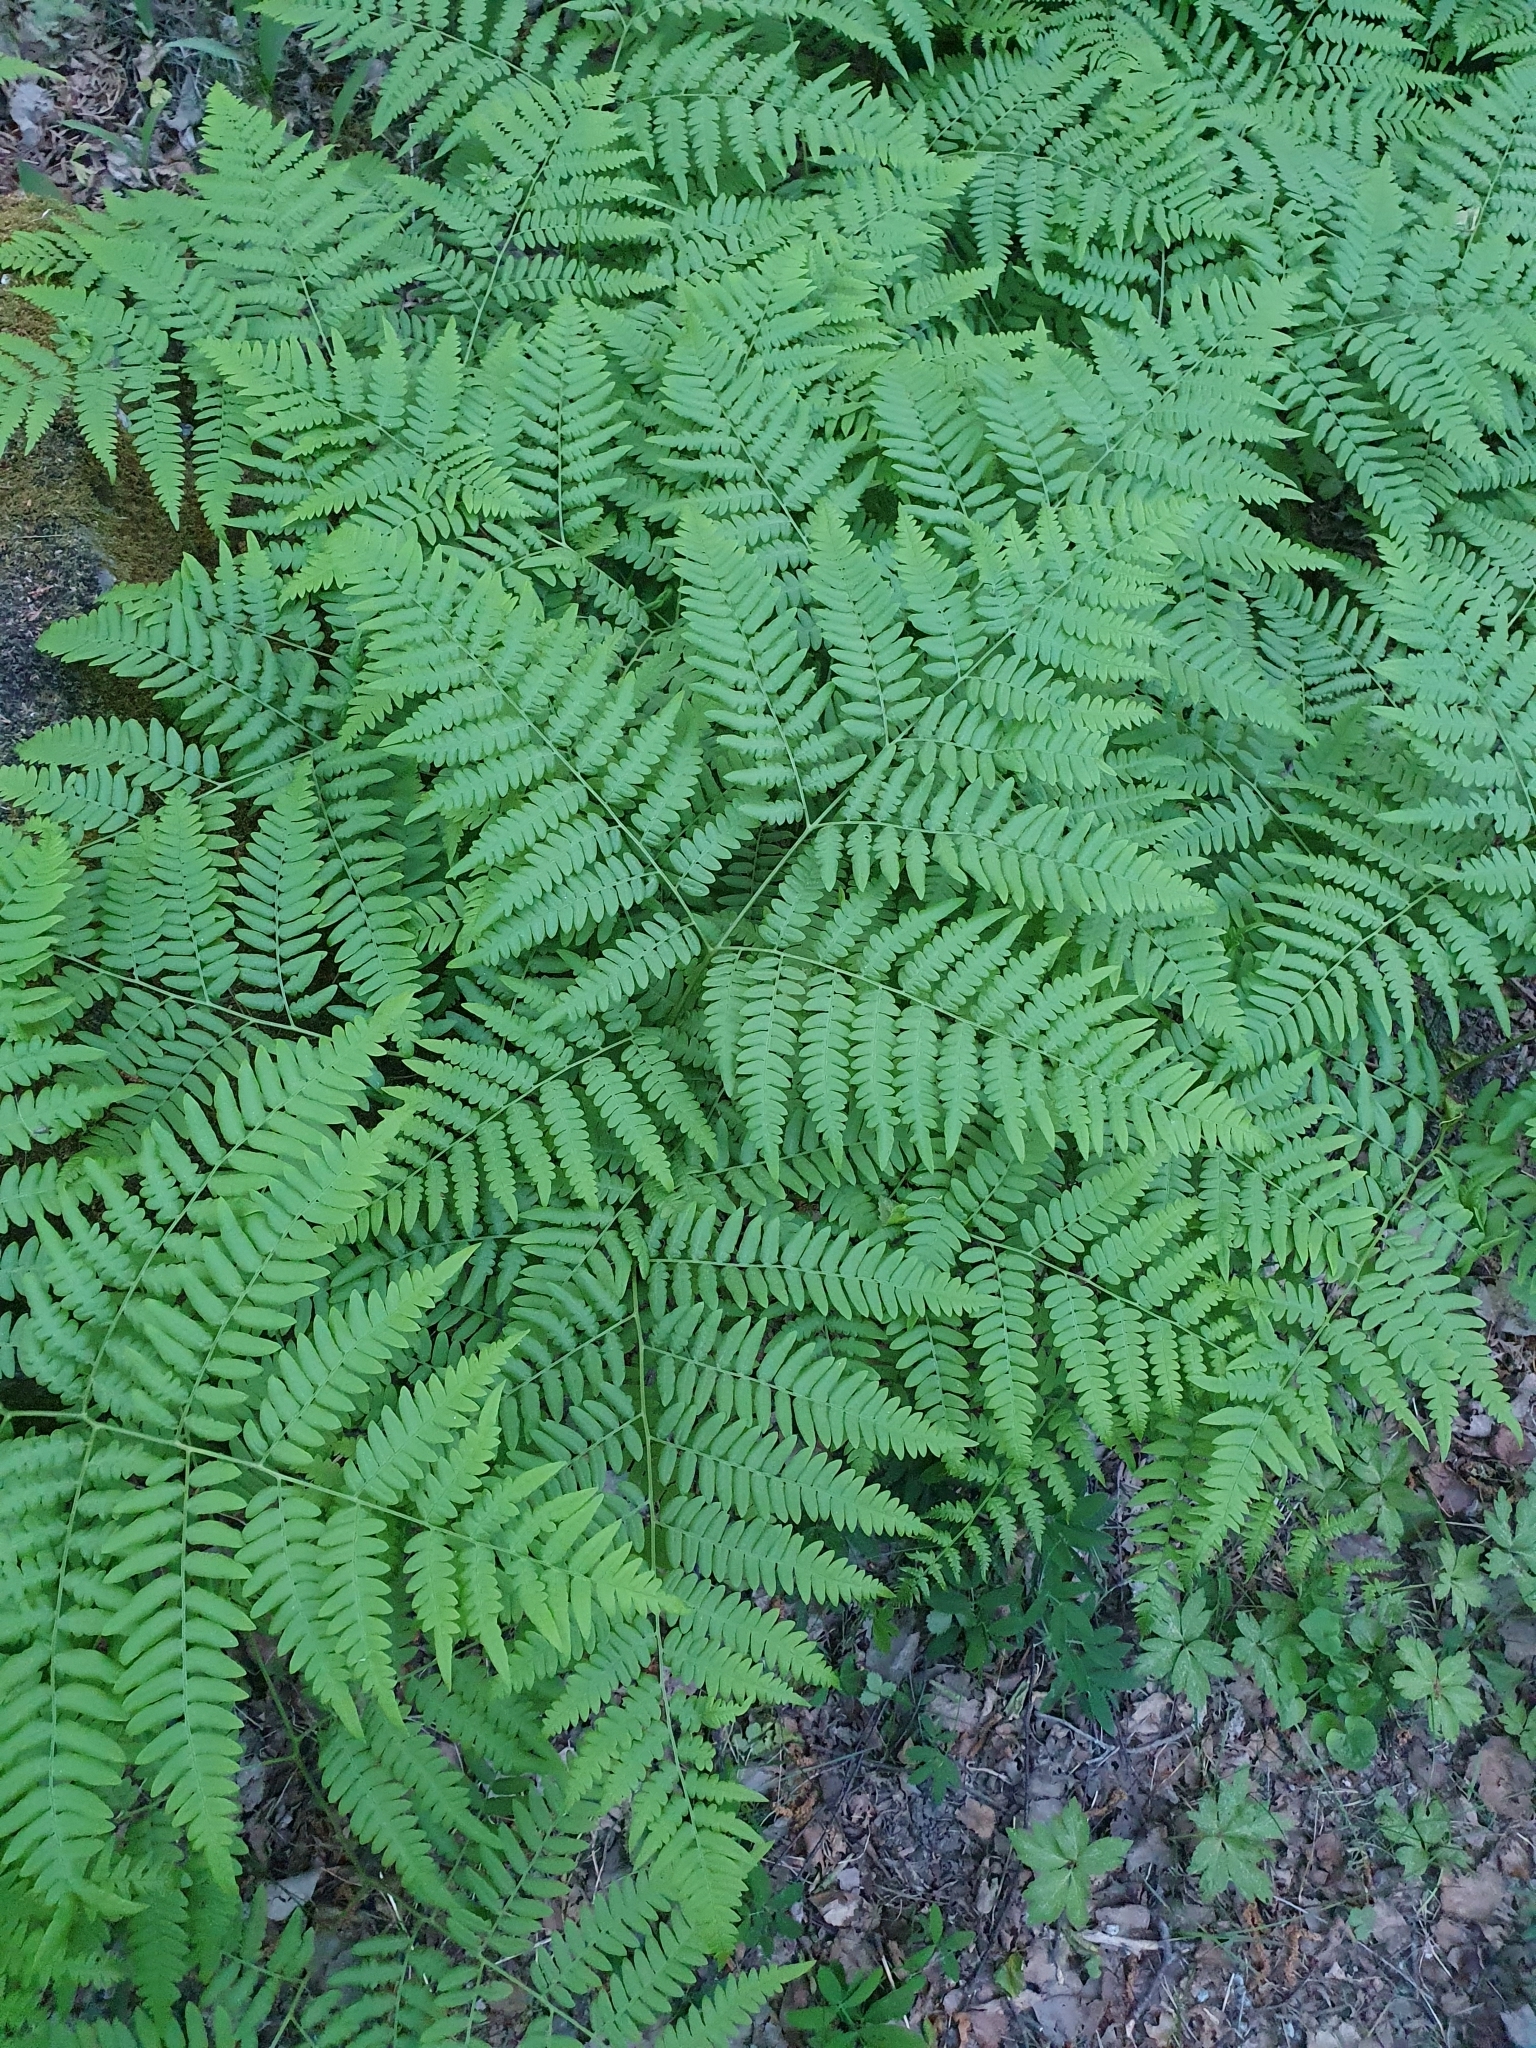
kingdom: Plantae
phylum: Tracheophyta
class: Polypodiopsida
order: Polypodiales
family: Dennstaedtiaceae
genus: Pteridium
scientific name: Pteridium aquilinum
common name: Bracken
